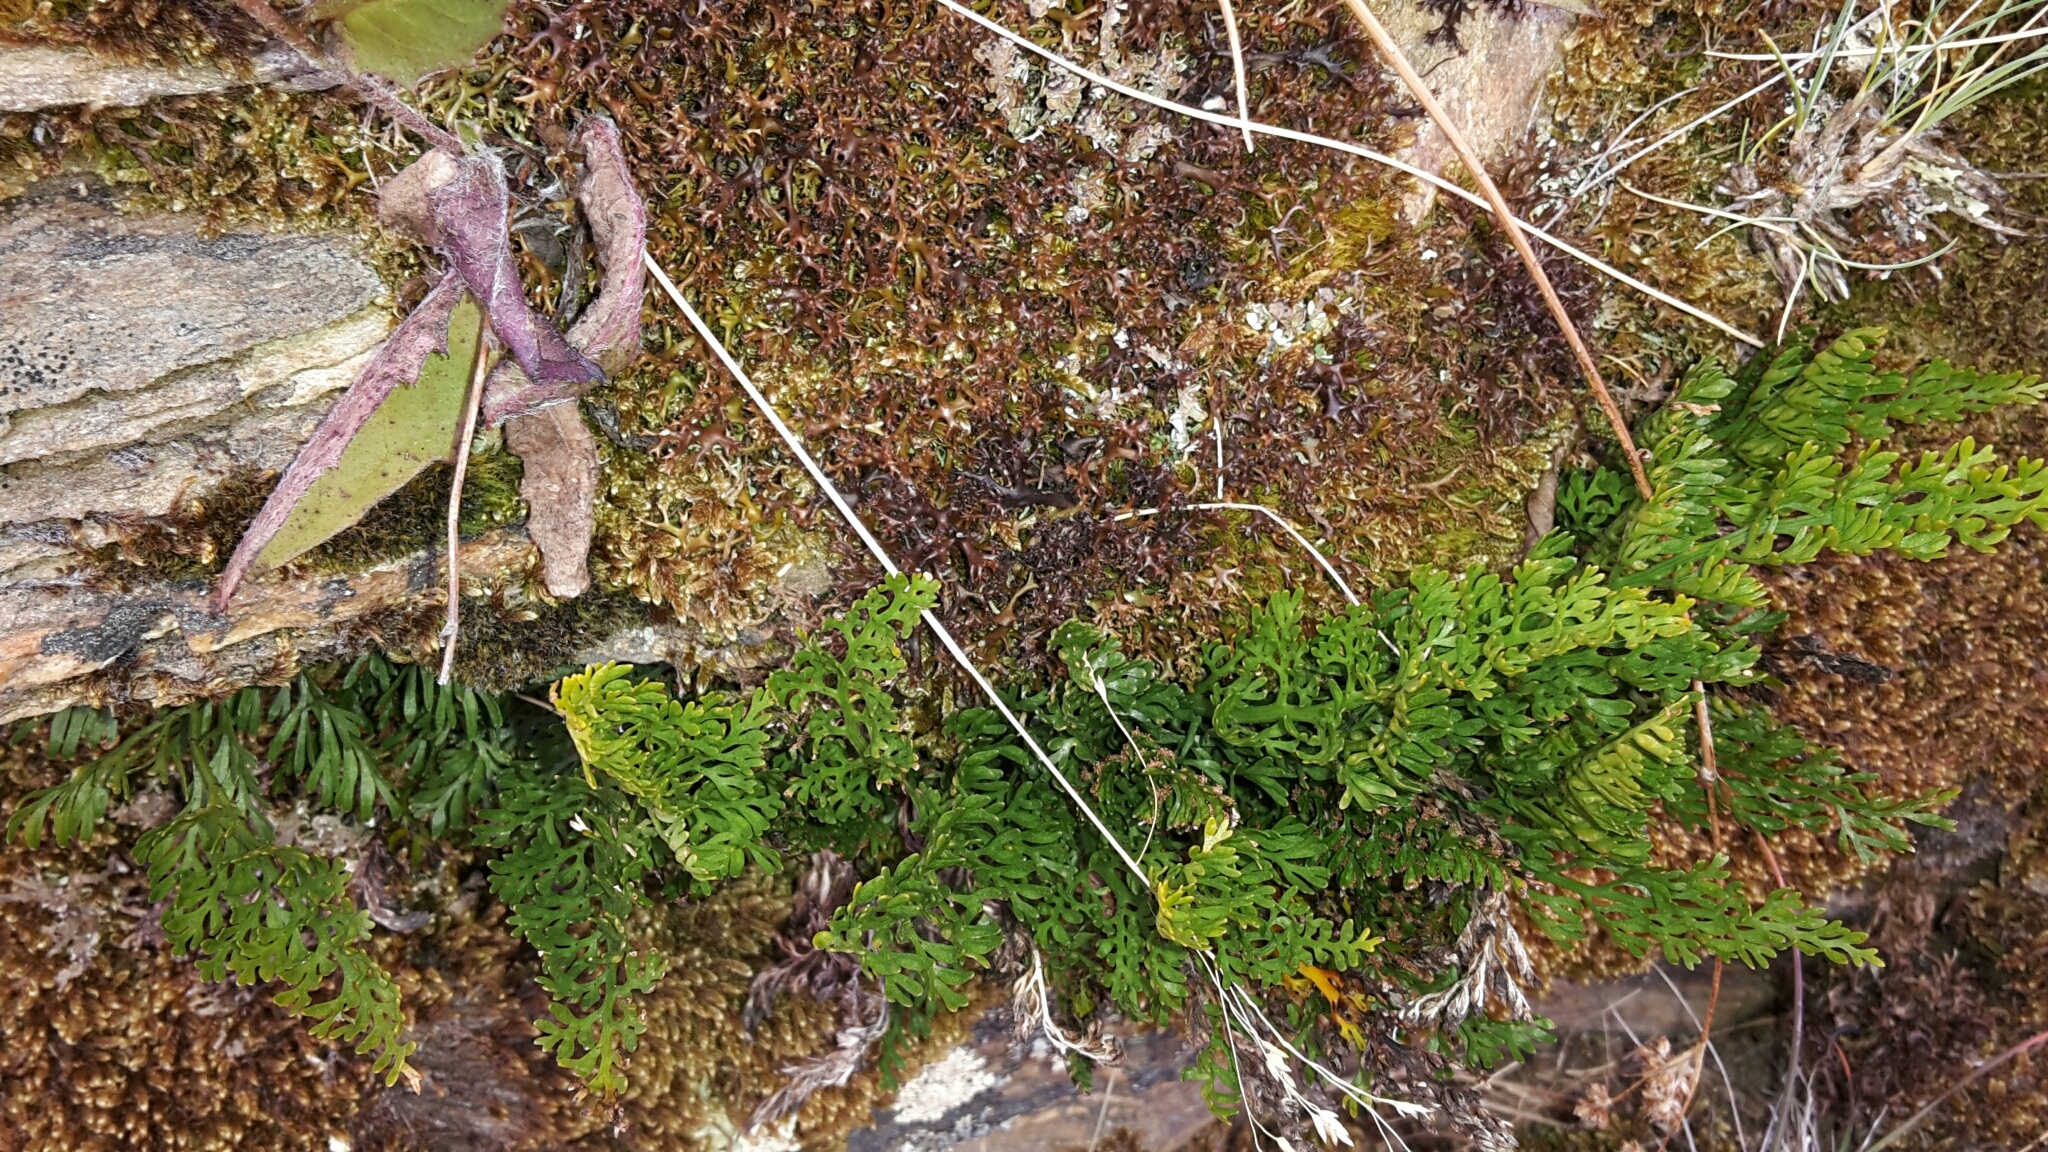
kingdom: Plantae
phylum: Tracheophyta
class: Polypodiopsida
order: Polypodiales
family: Aspleniaceae
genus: Asplenium
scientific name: Asplenium richardii
